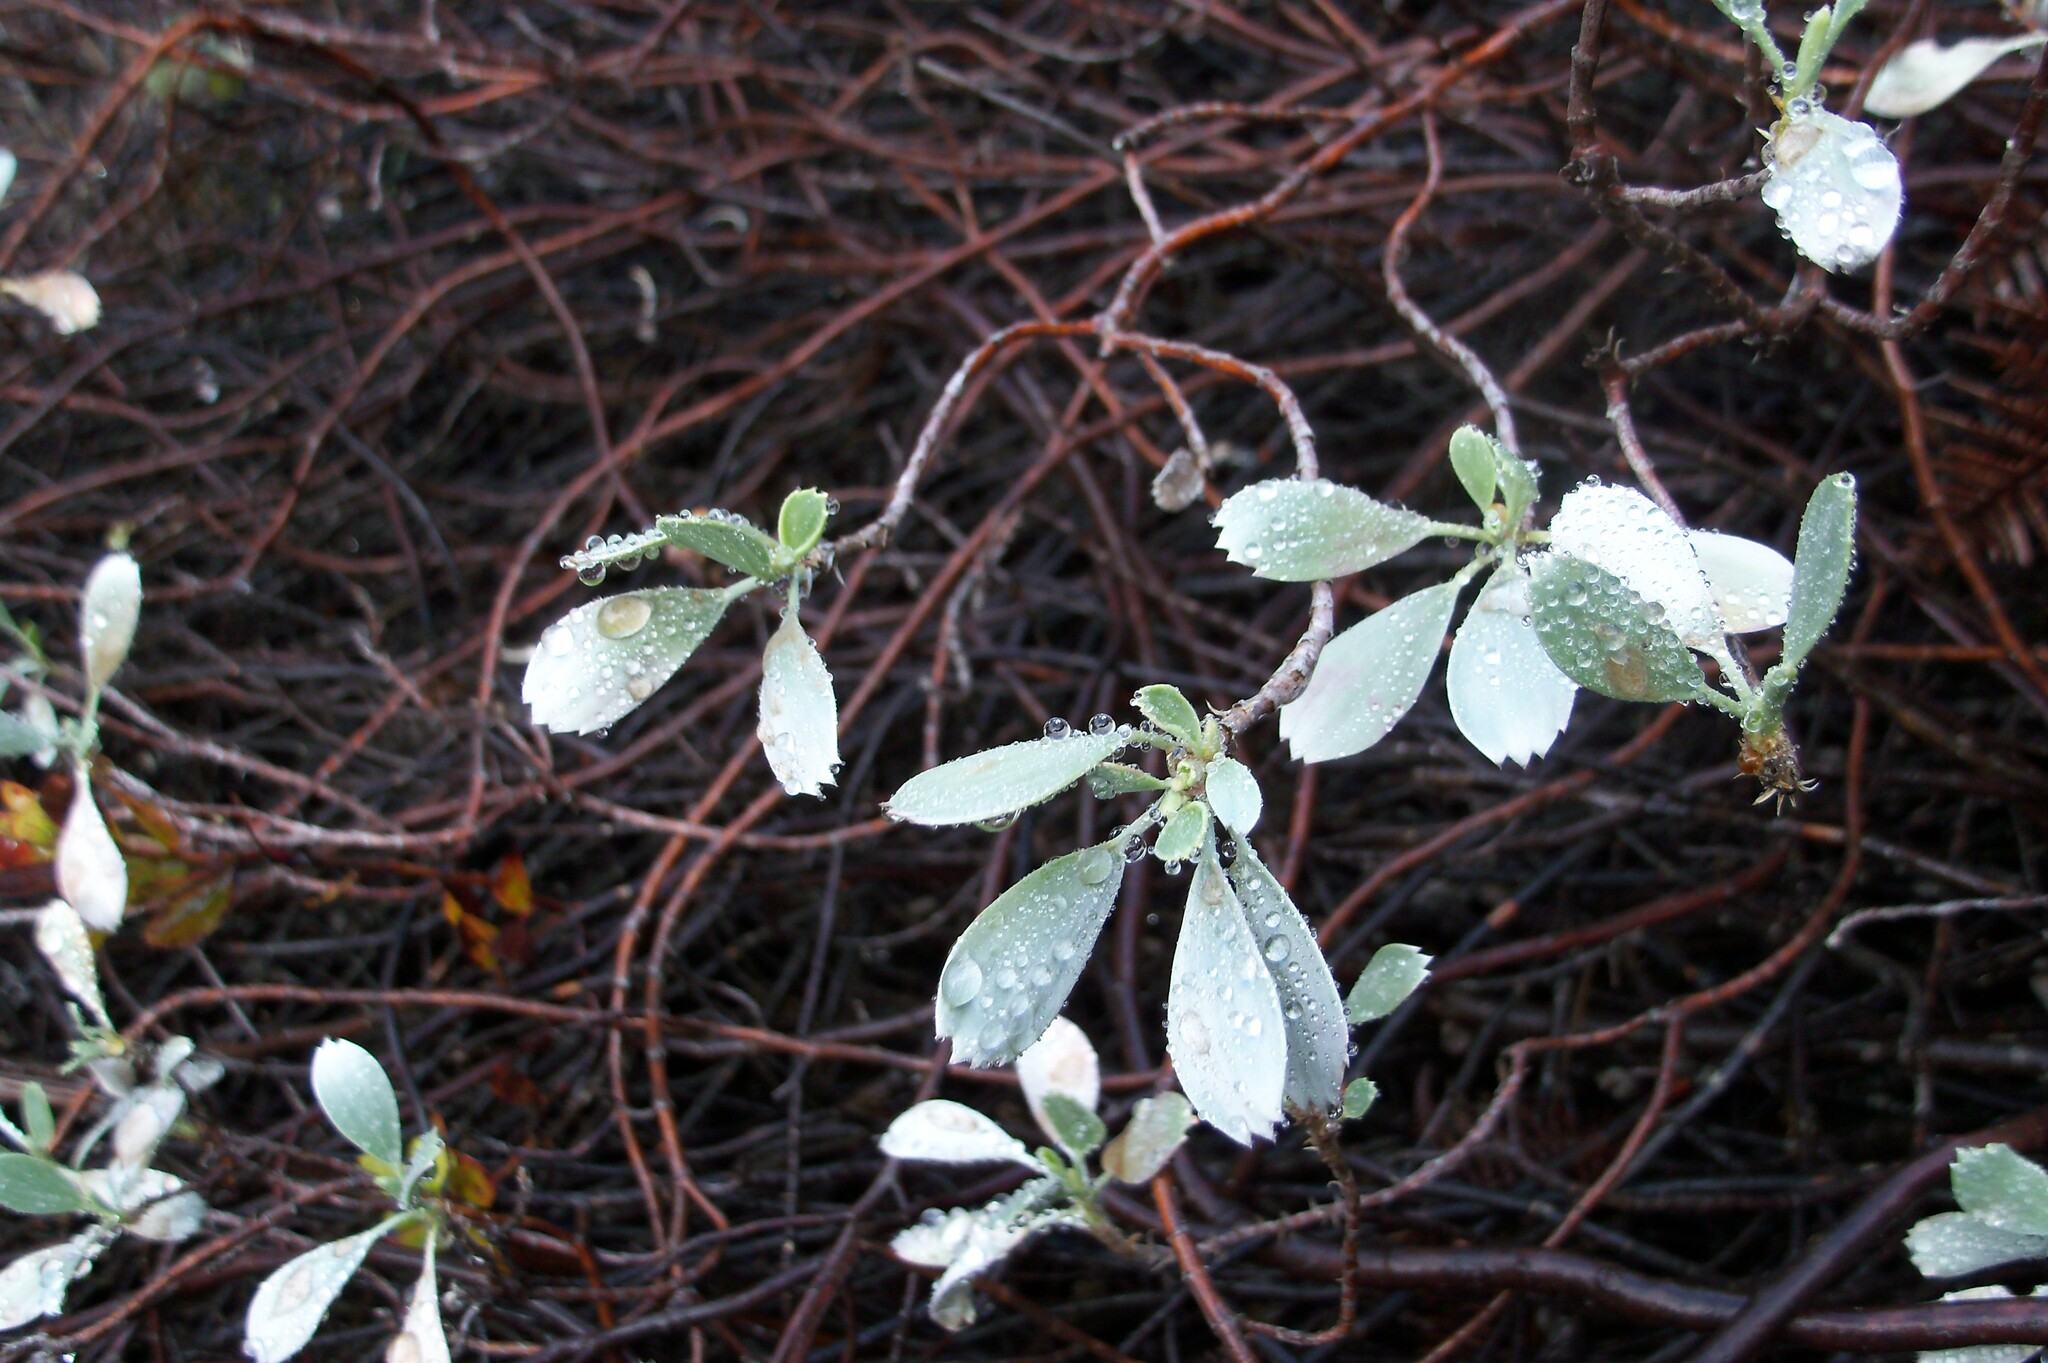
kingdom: Plantae
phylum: Tracheophyta
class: Magnoliopsida
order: Geraniales
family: Geraniaceae
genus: Geranium
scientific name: Geranium cuneatum
